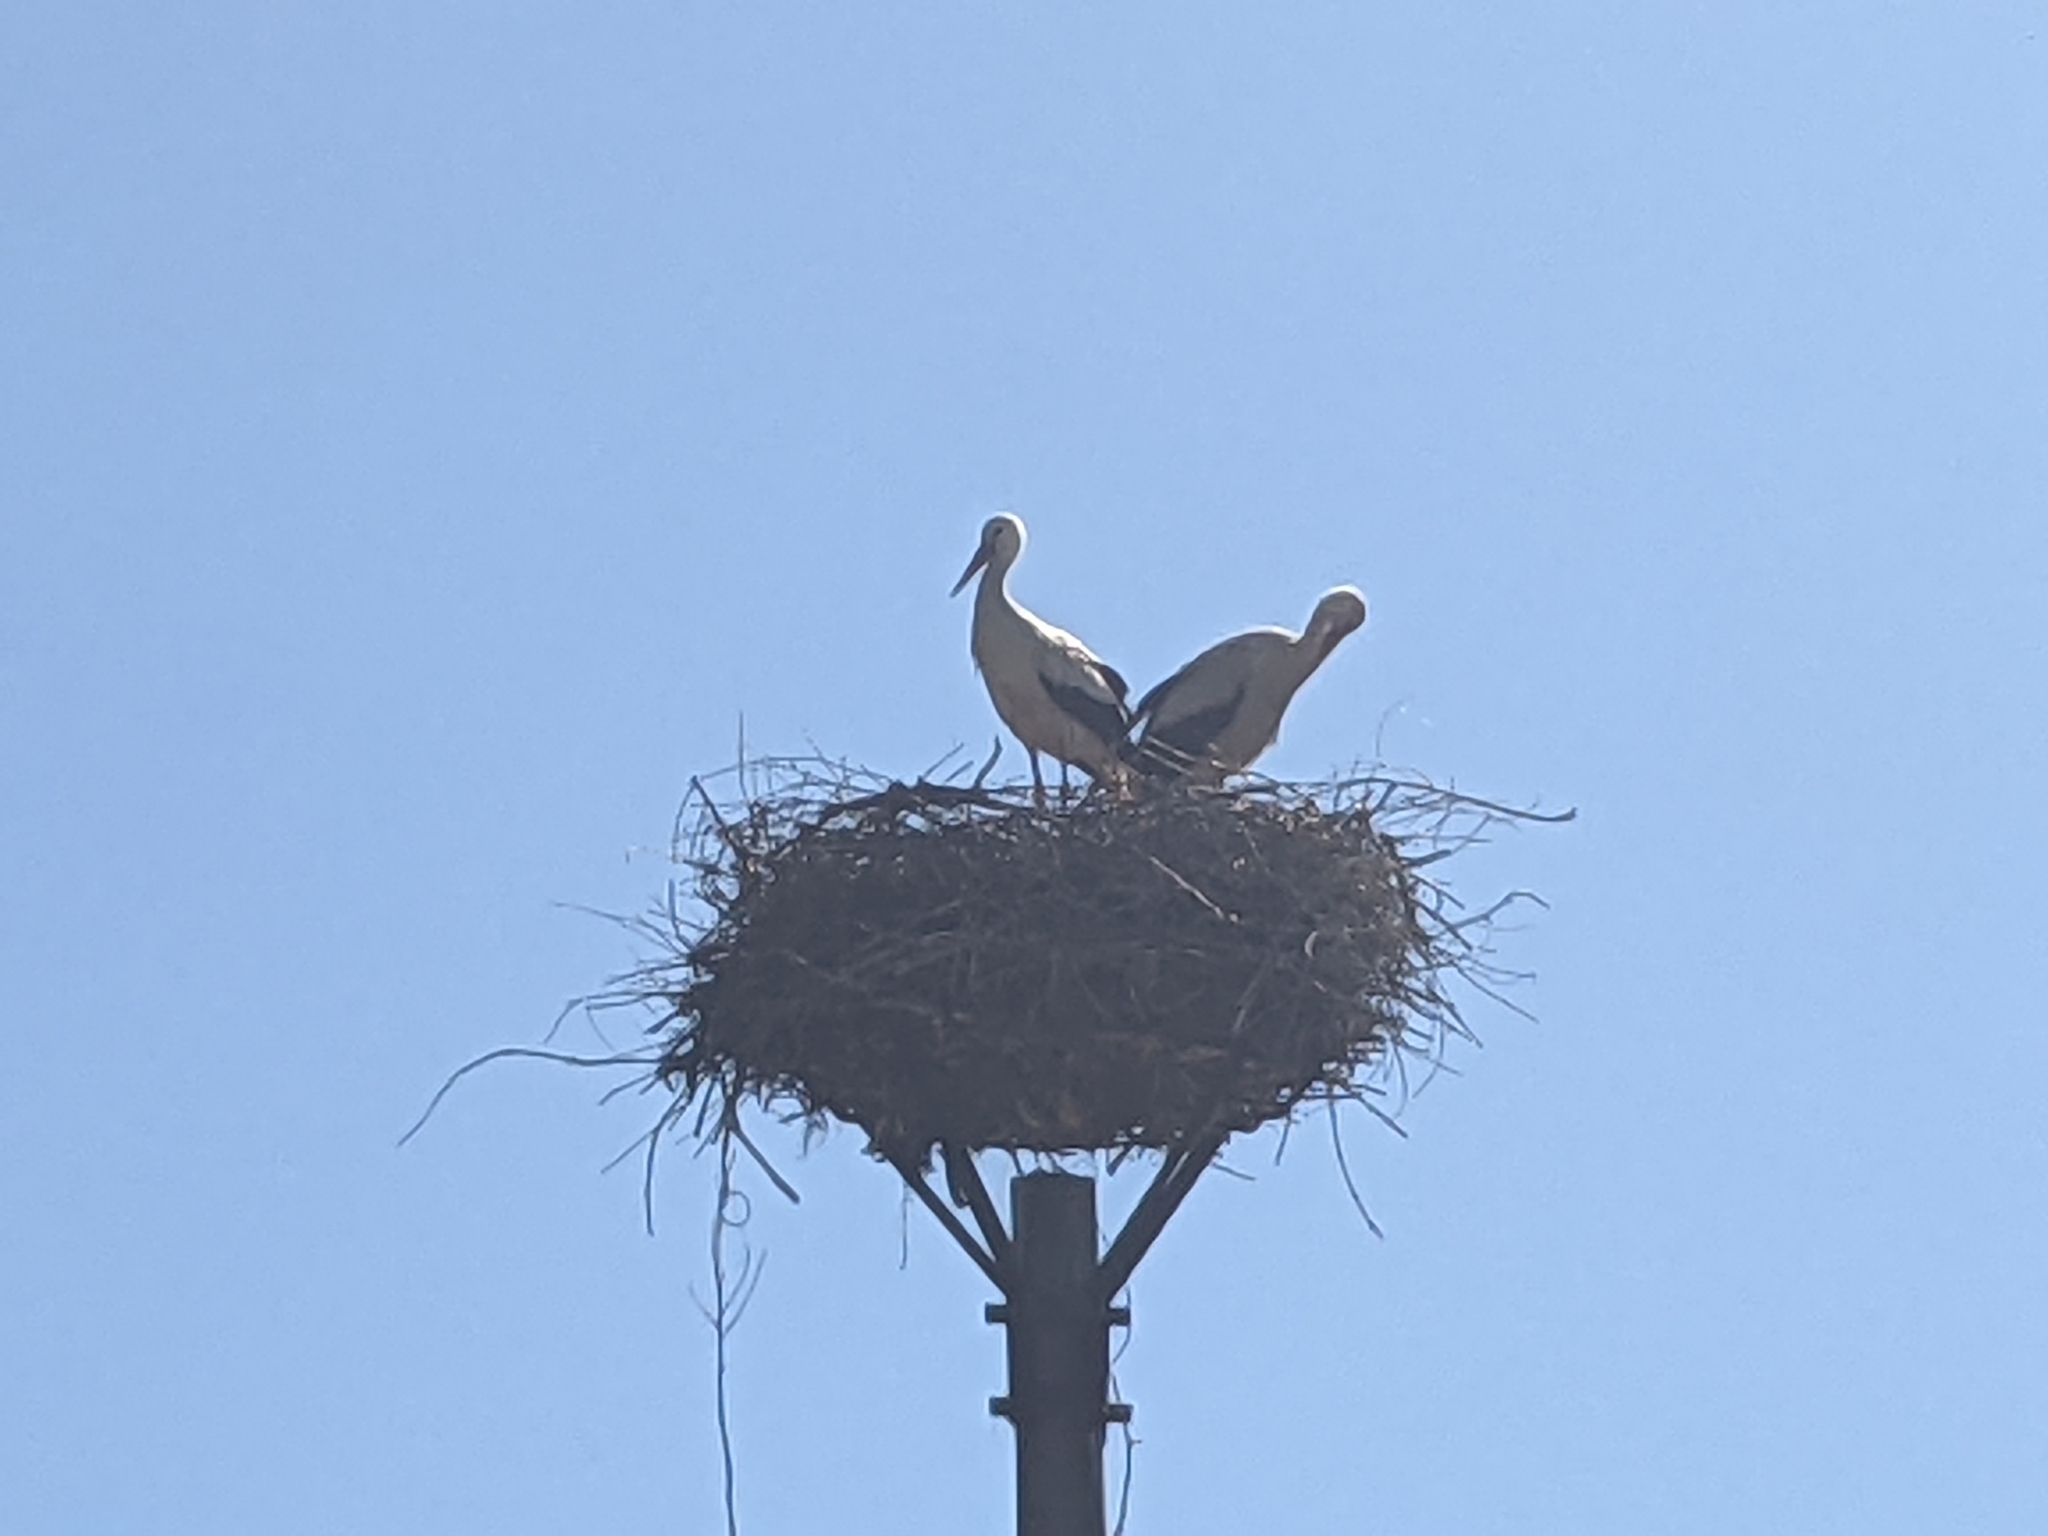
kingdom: Animalia
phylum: Chordata
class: Aves
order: Ciconiiformes
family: Ciconiidae
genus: Ciconia
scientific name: Ciconia ciconia
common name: White stork
